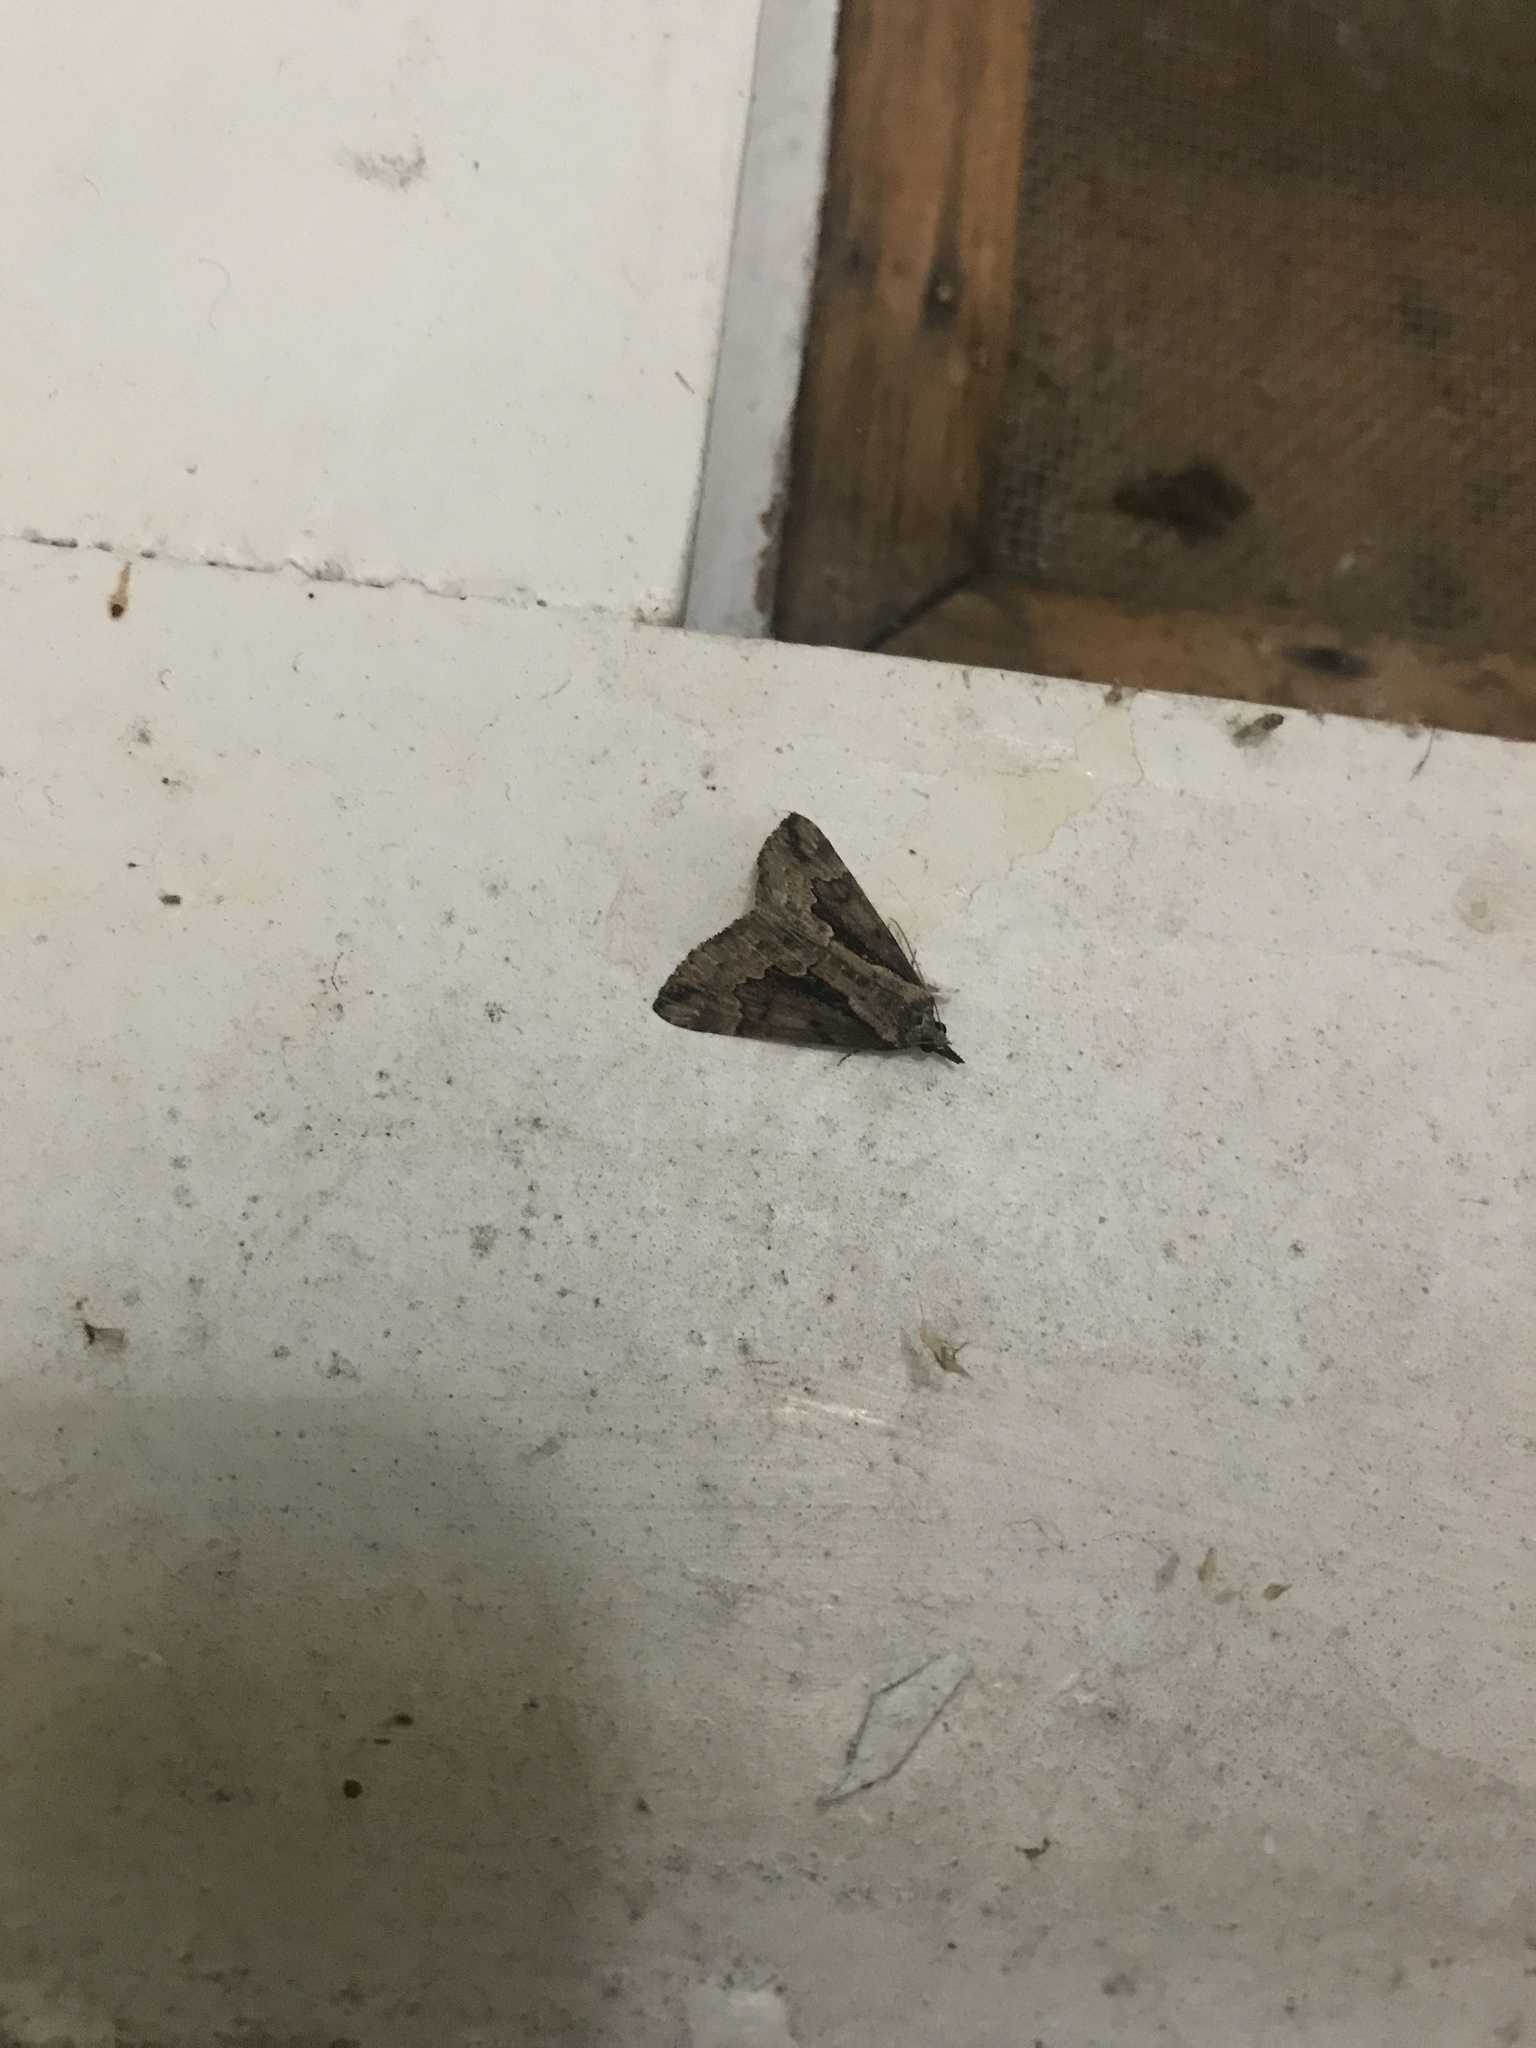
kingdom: Animalia
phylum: Arthropoda
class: Insecta
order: Lepidoptera
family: Erebidae
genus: Hypena
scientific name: Hypena baltimoralis
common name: Baltimore snout
